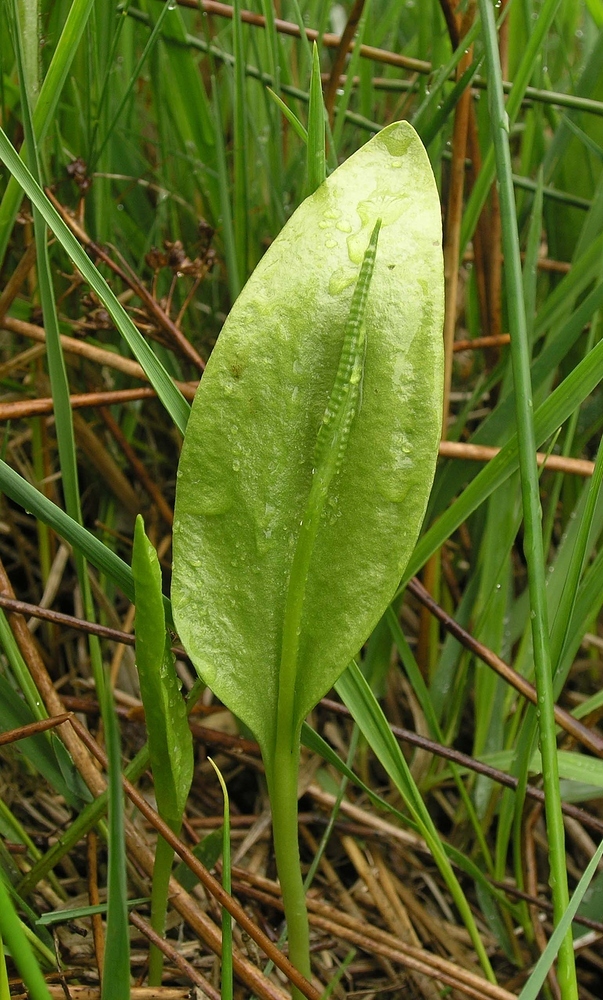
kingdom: Plantae
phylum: Tracheophyta
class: Polypodiopsida
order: Ophioglossales
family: Ophioglossaceae
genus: Ophioglossum
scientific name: Ophioglossum vulgatum
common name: Adder's-tongue
